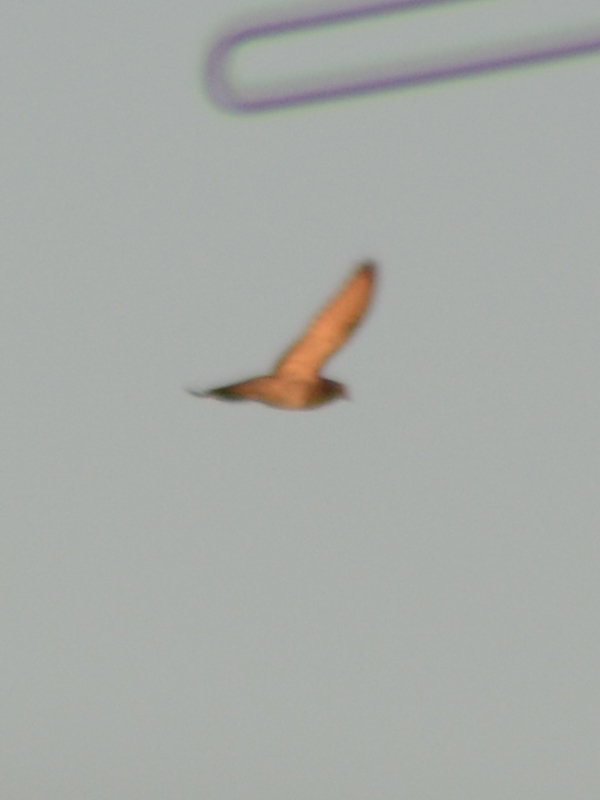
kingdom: Animalia
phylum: Chordata
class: Aves
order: Columbiformes
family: Columbidae
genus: Columba
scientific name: Columba livia
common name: Rock pigeon
